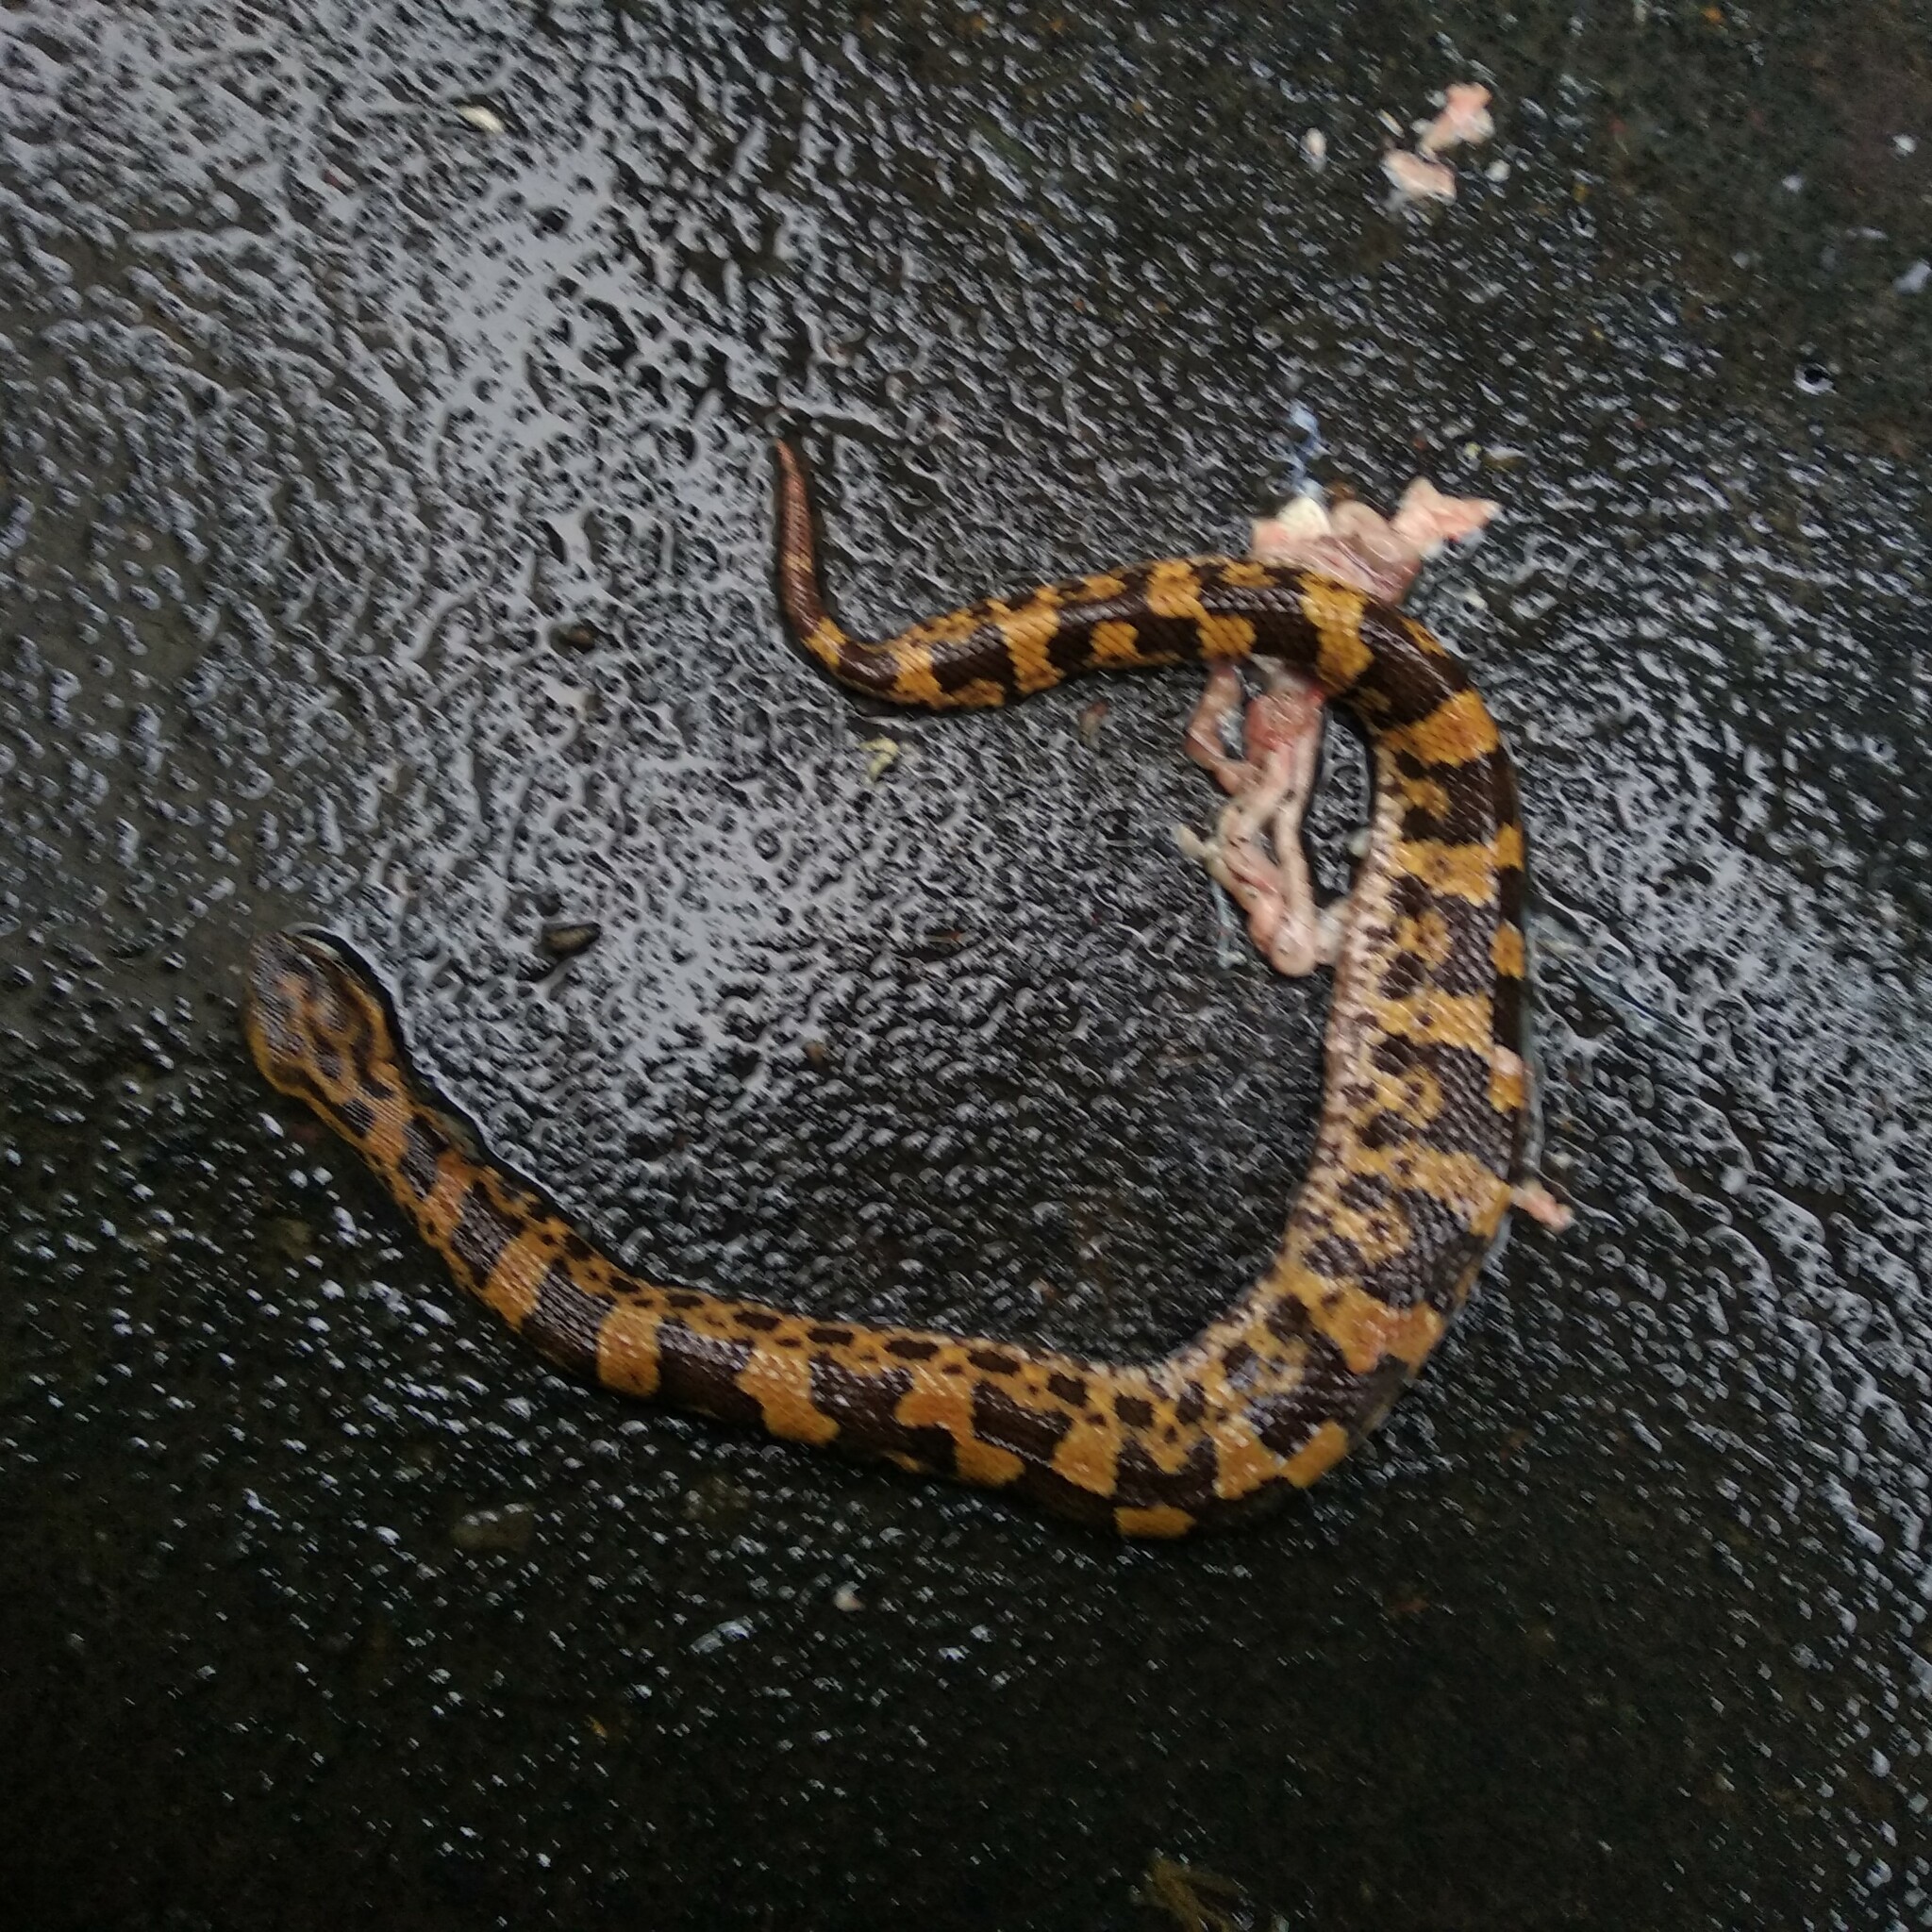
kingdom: Animalia
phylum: Chordata
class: Squamata
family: Viperidae
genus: Ovophis
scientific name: Ovophis monticola
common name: Mountain pit viper
